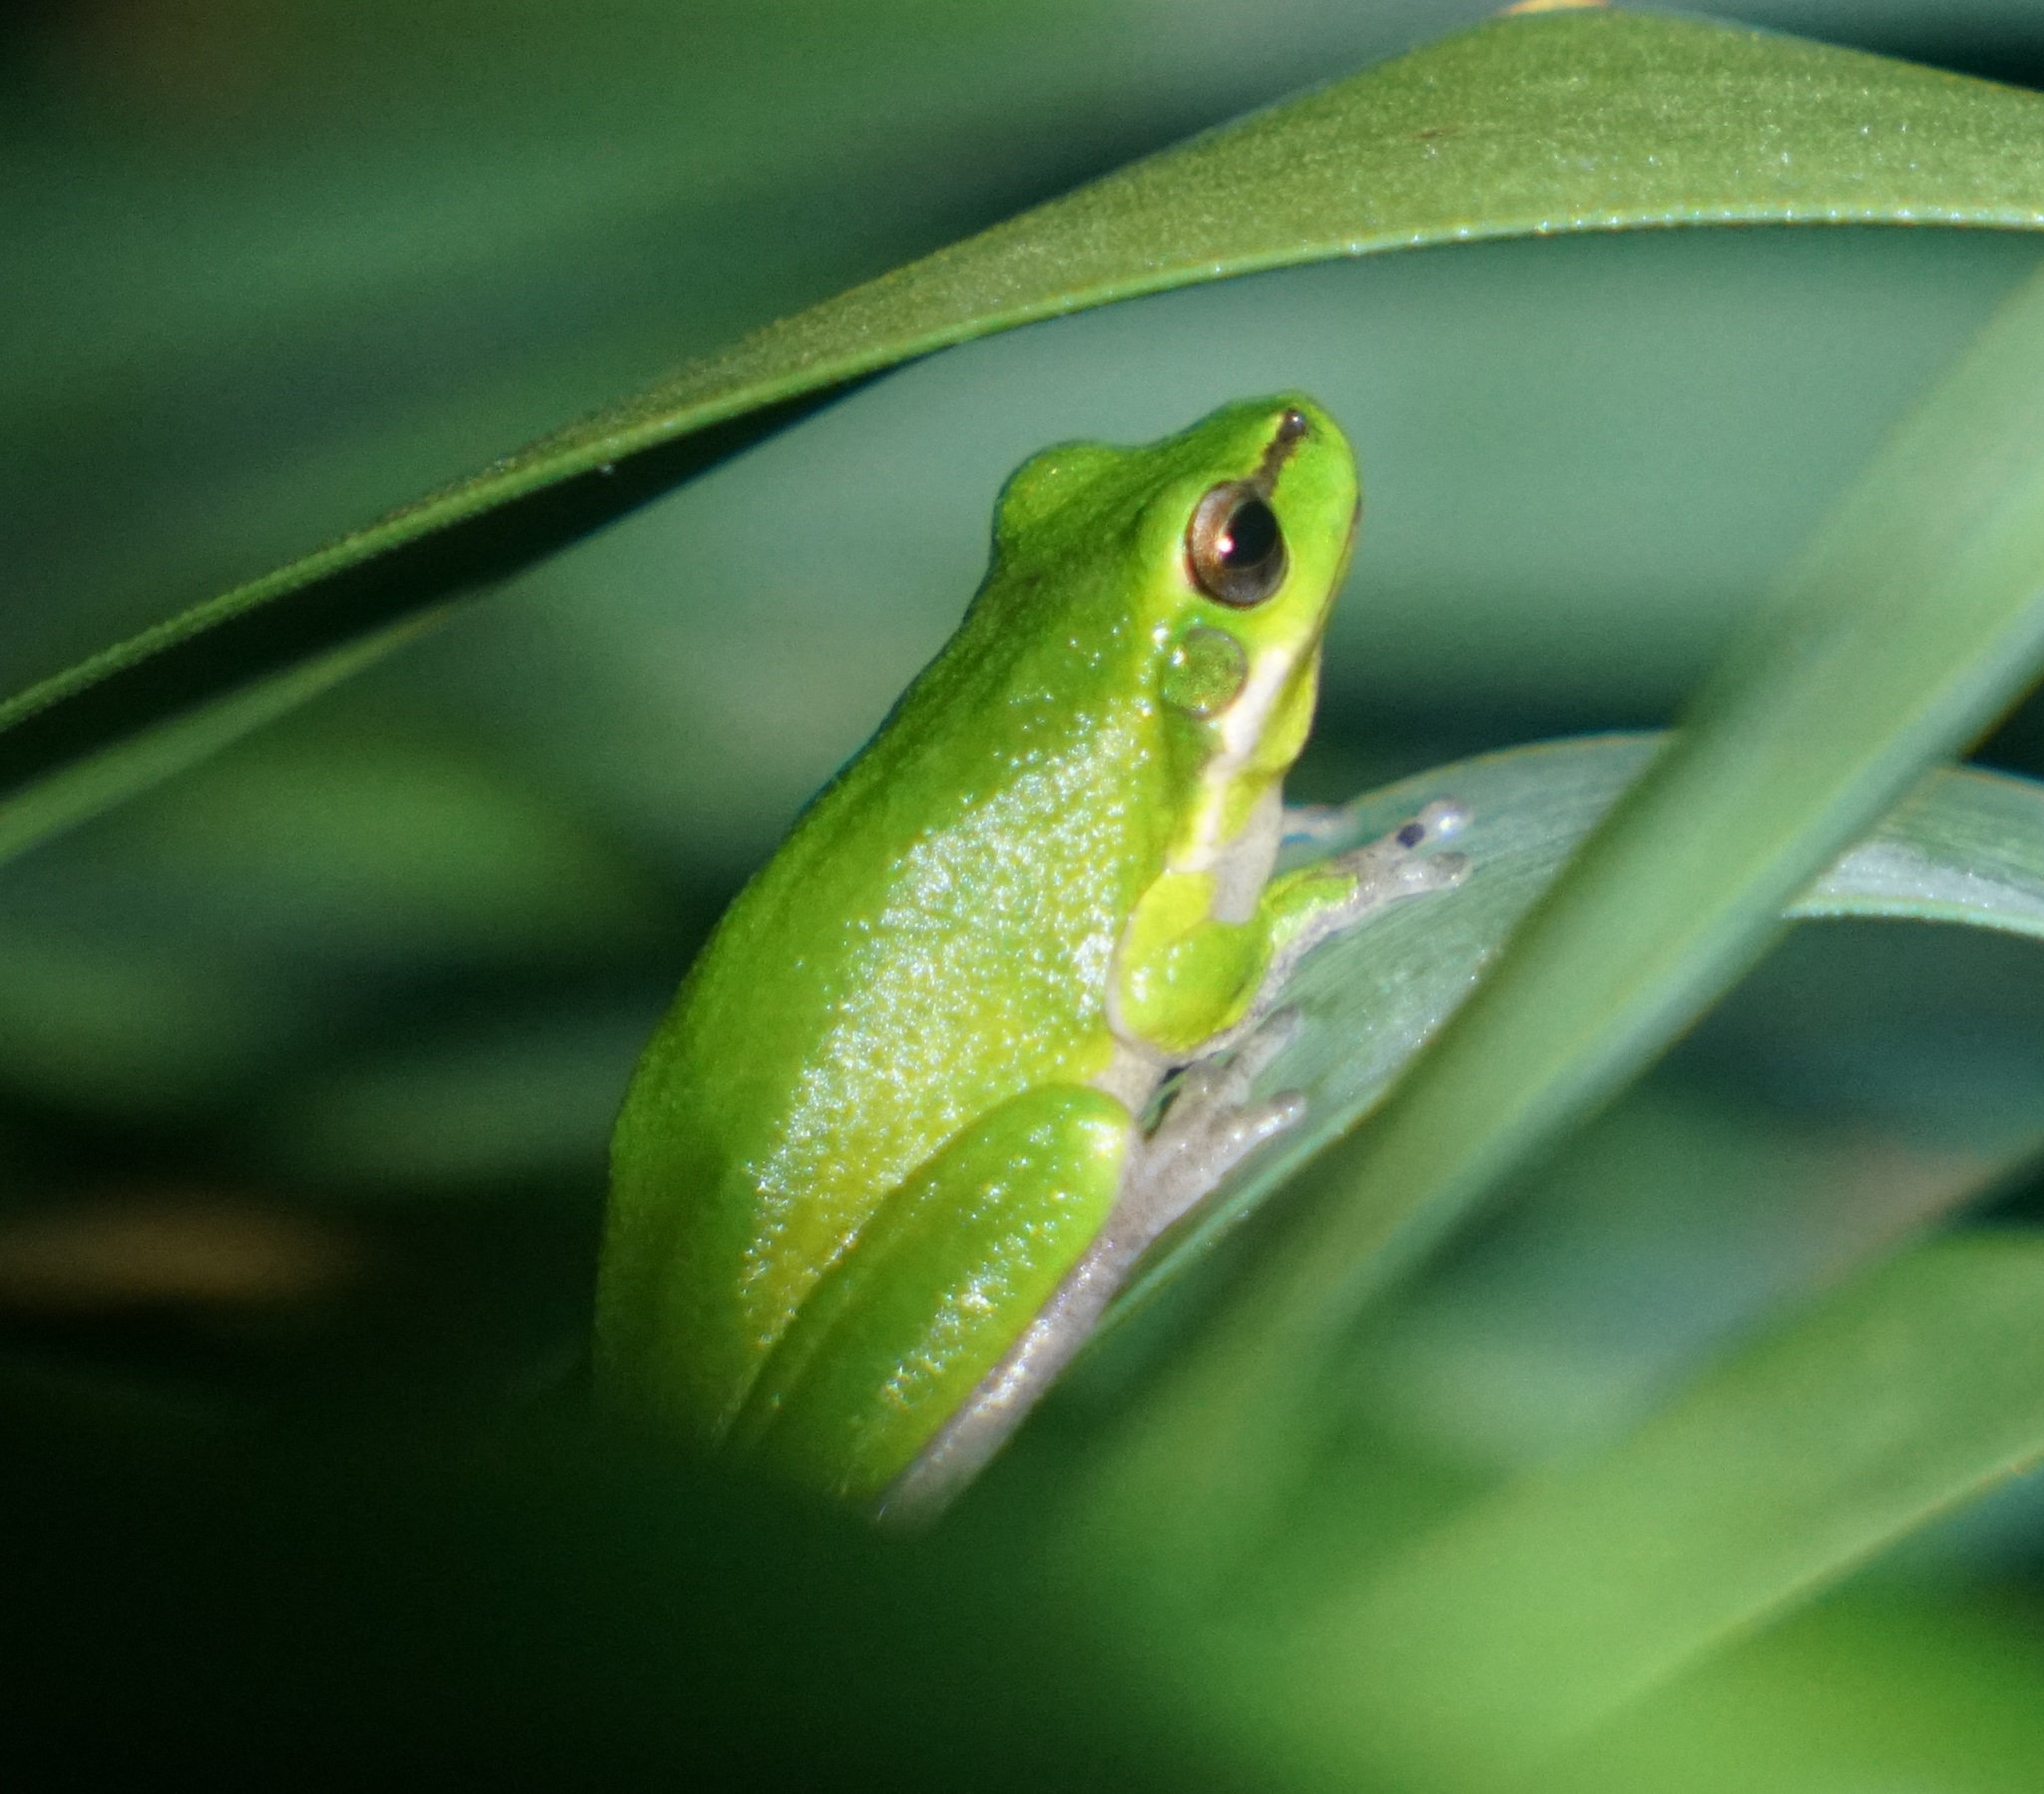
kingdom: Animalia
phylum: Chordata
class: Amphibia
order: Anura
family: Pelodryadidae
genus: Litoria
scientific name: Litoria fallax
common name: Eastern dwarf treefrog
